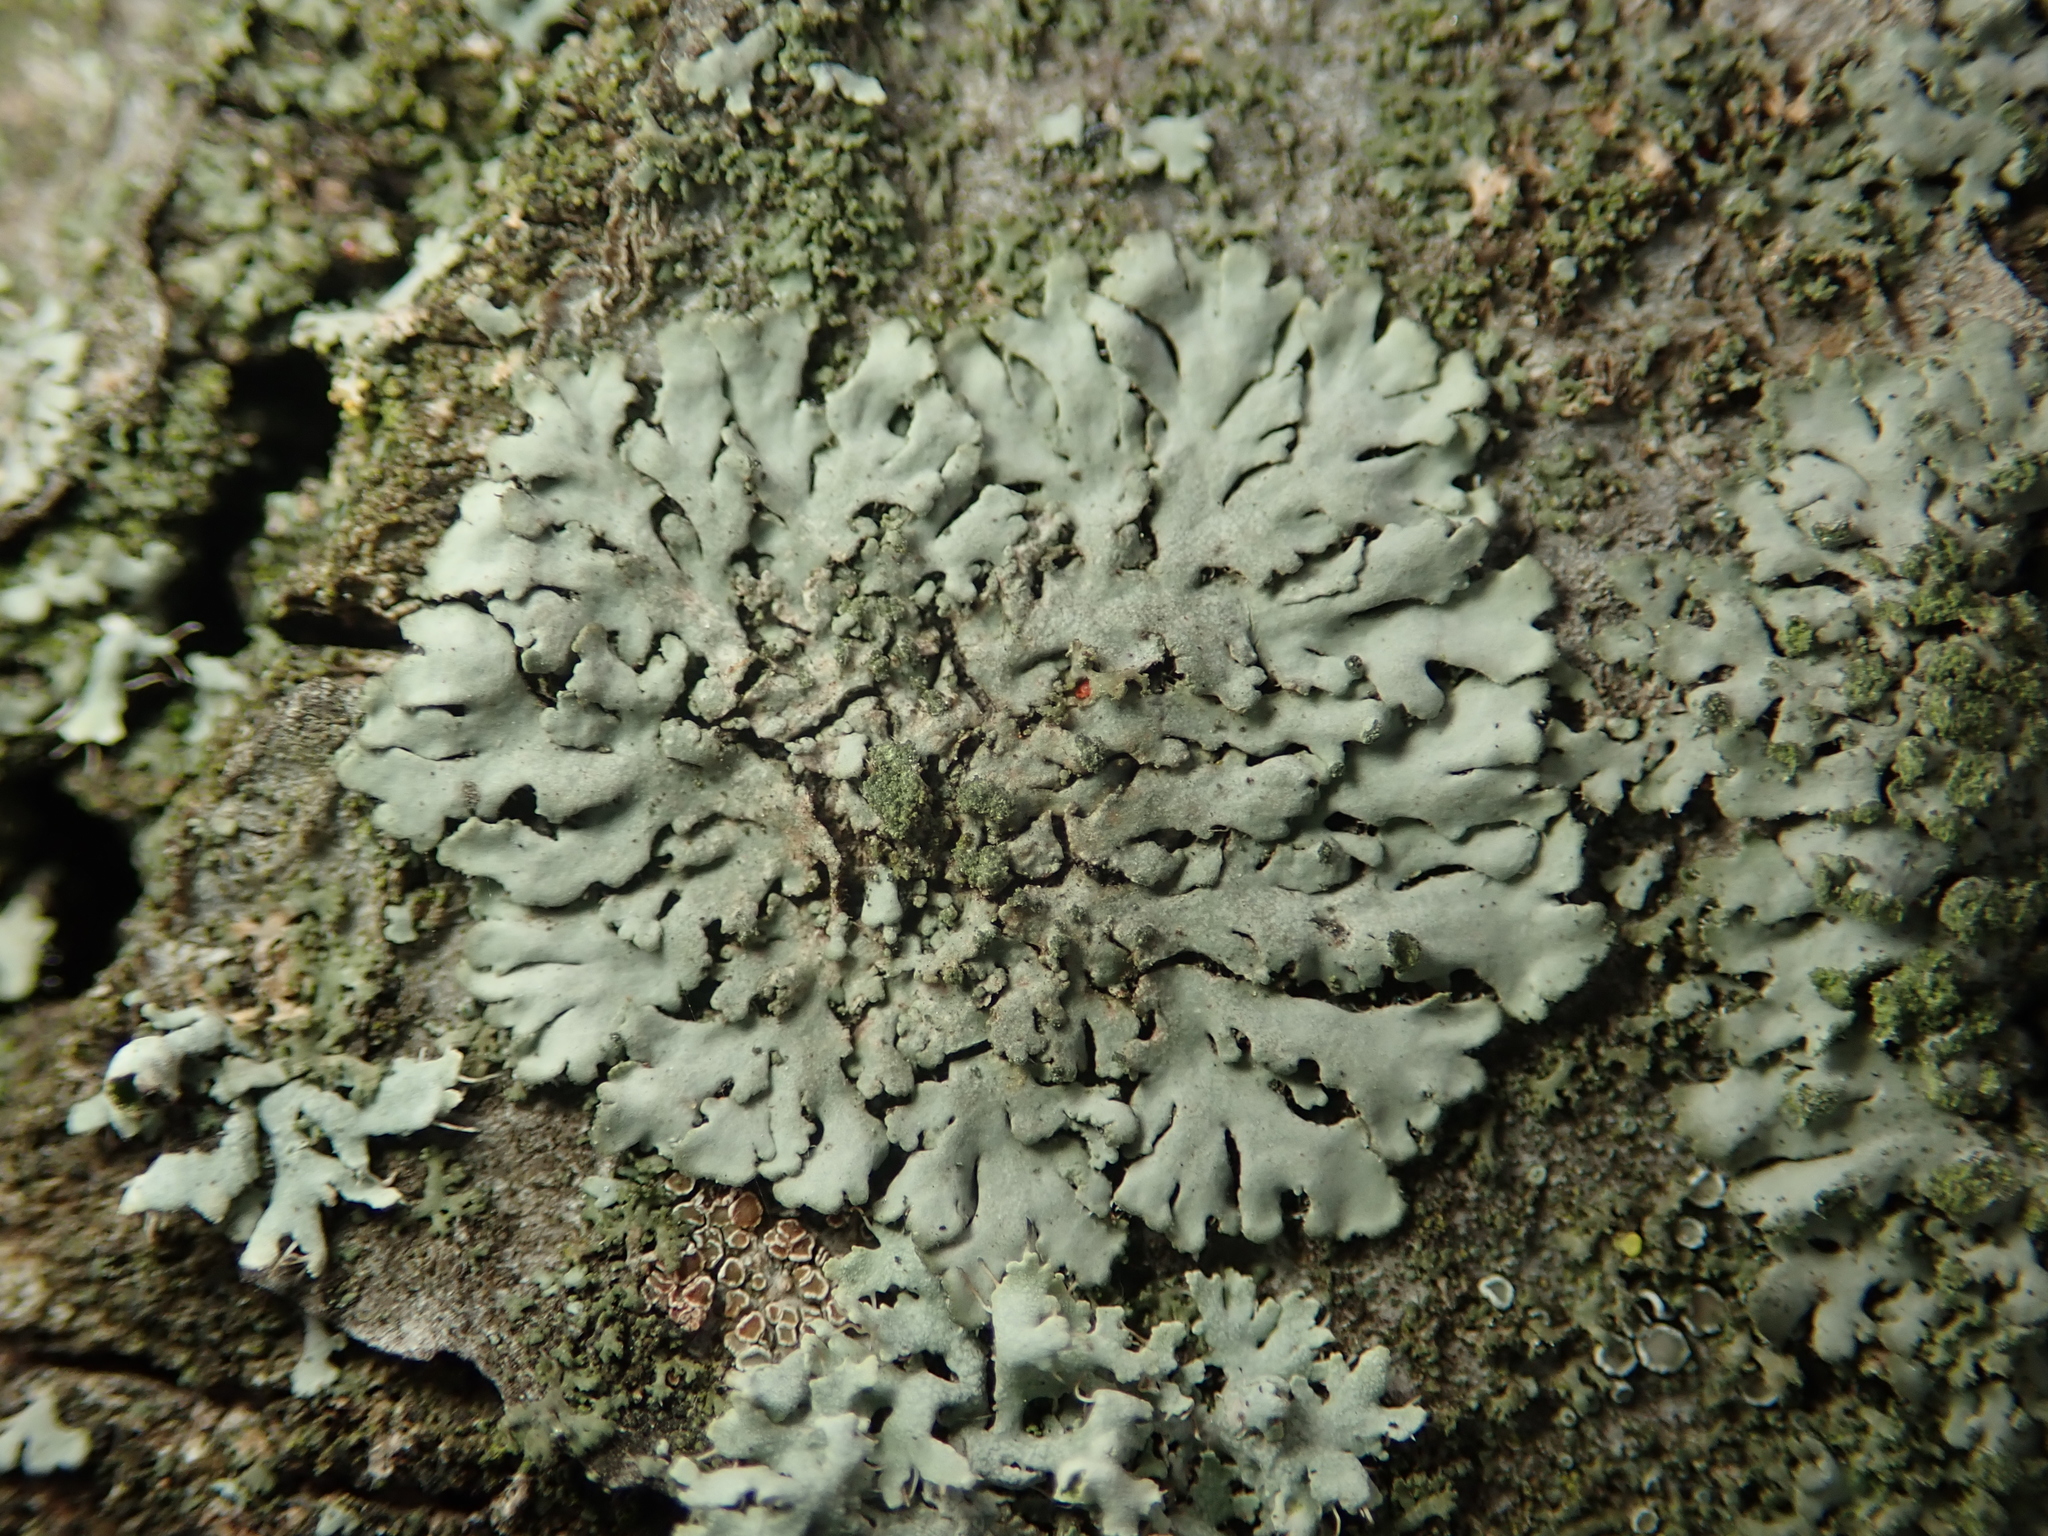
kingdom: Fungi
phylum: Ascomycota
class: Lecanoromycetes
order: Caliciales
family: Physciaceae
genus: Phaeophyscia
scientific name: Phaeophyscia orbicularis
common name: Mealy shadow lichen
